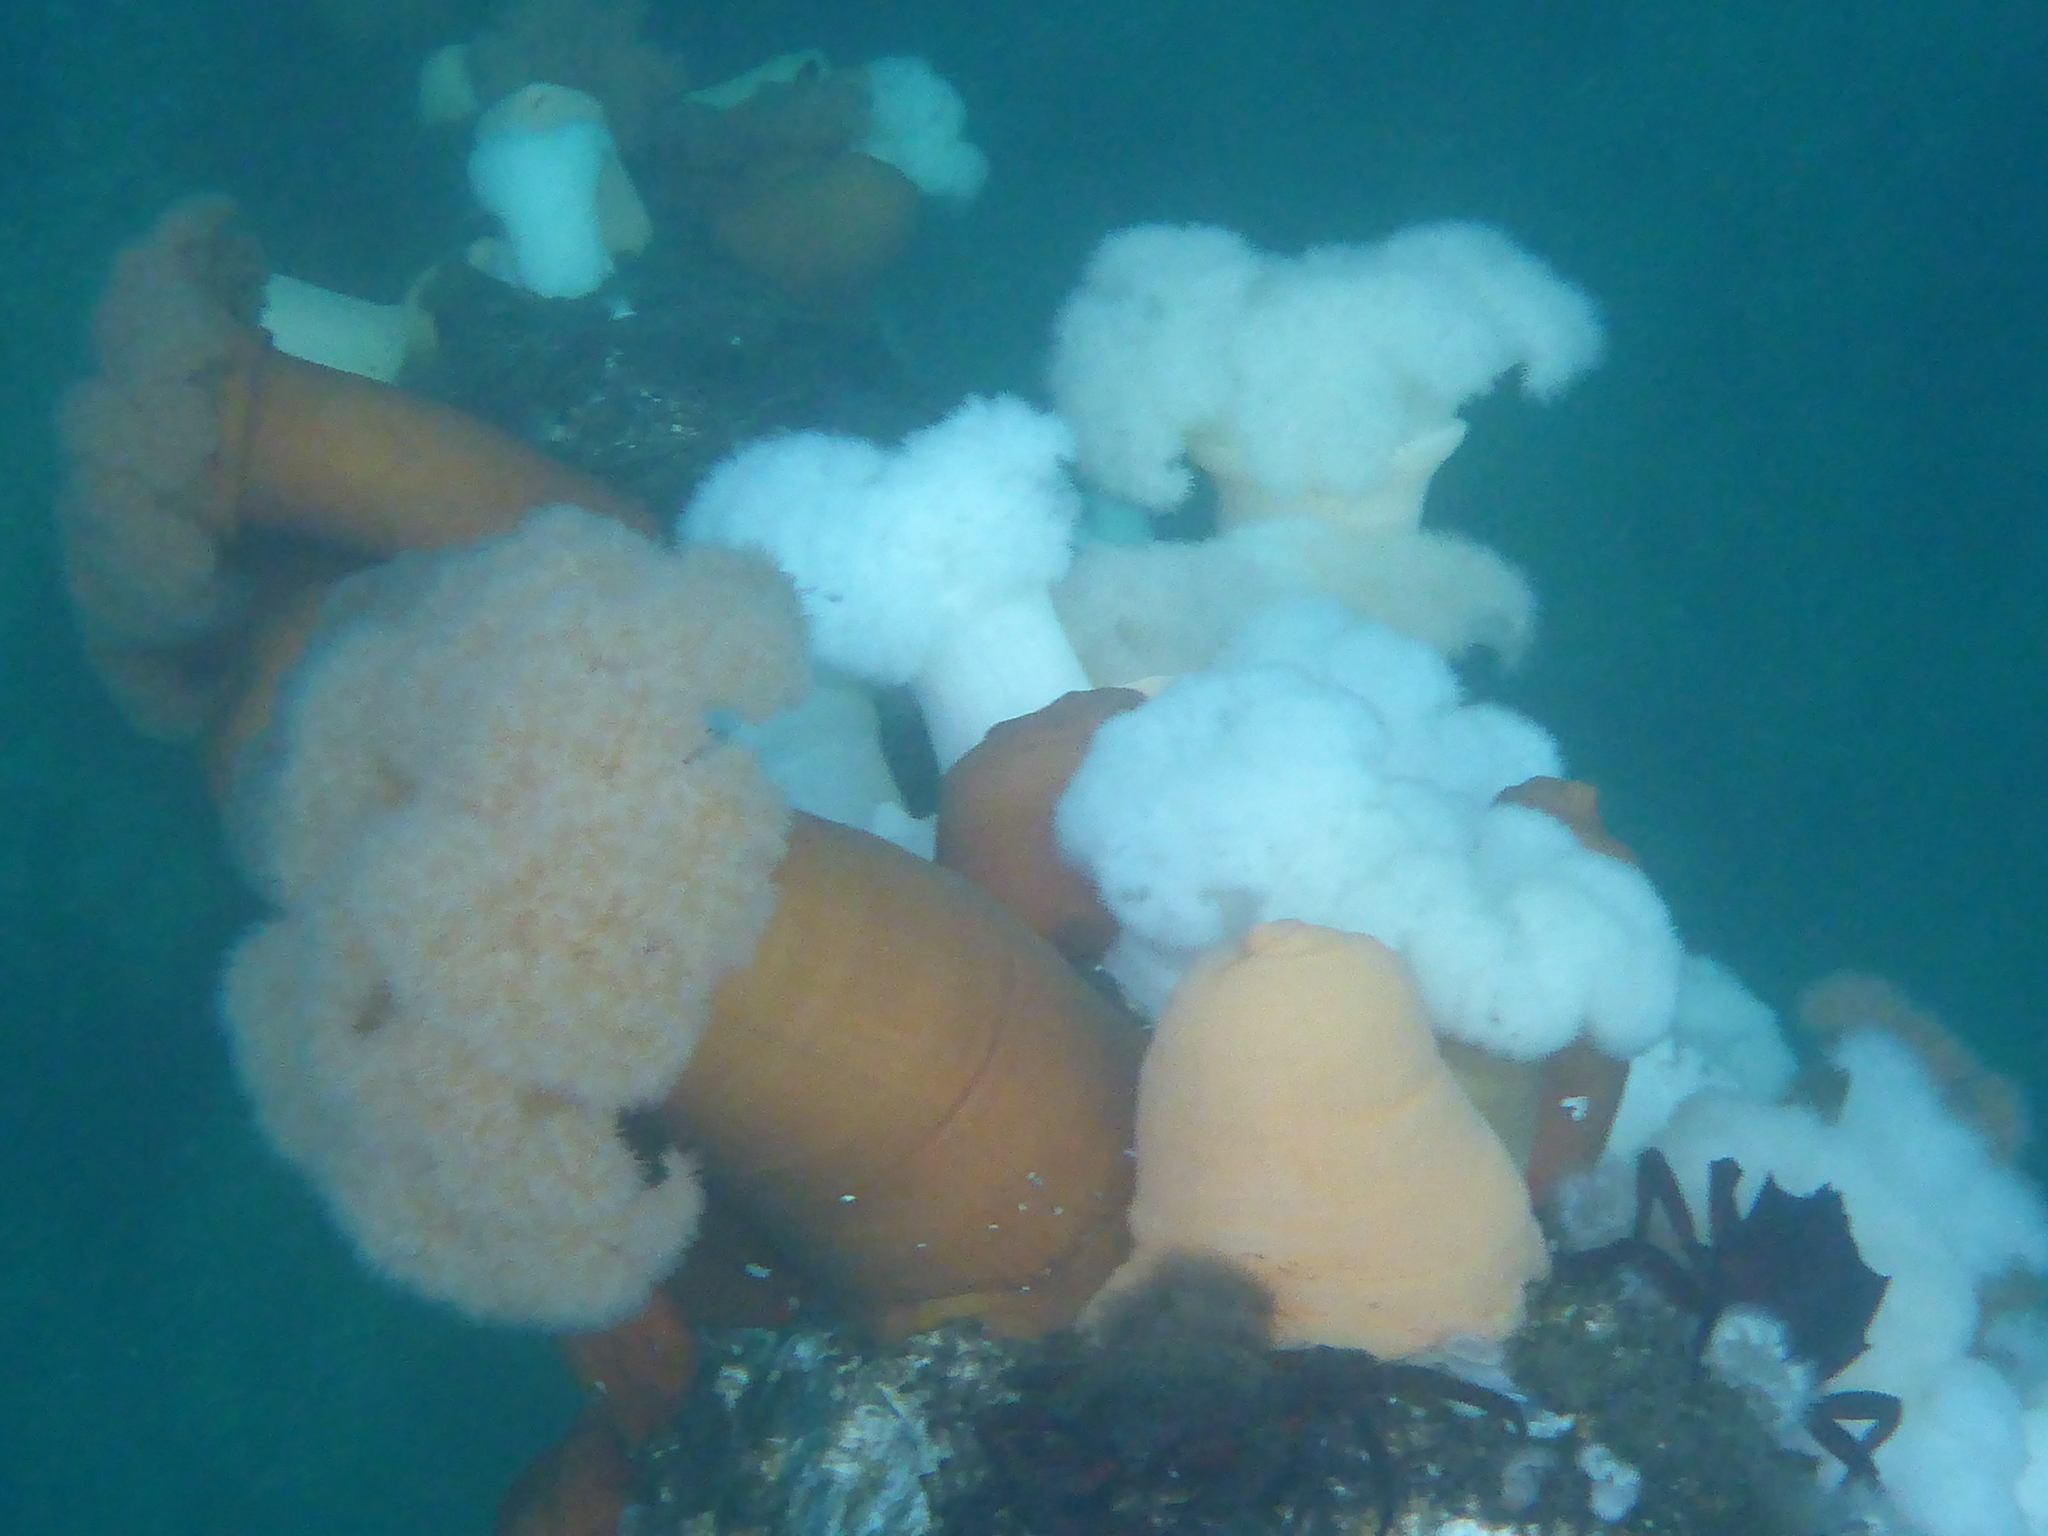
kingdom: Animalia
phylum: Cnidaria
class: Anthozoa
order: Actiniaria
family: Metridiidae
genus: Metridium
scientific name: Metridium farcimen
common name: Gigantic anemone
